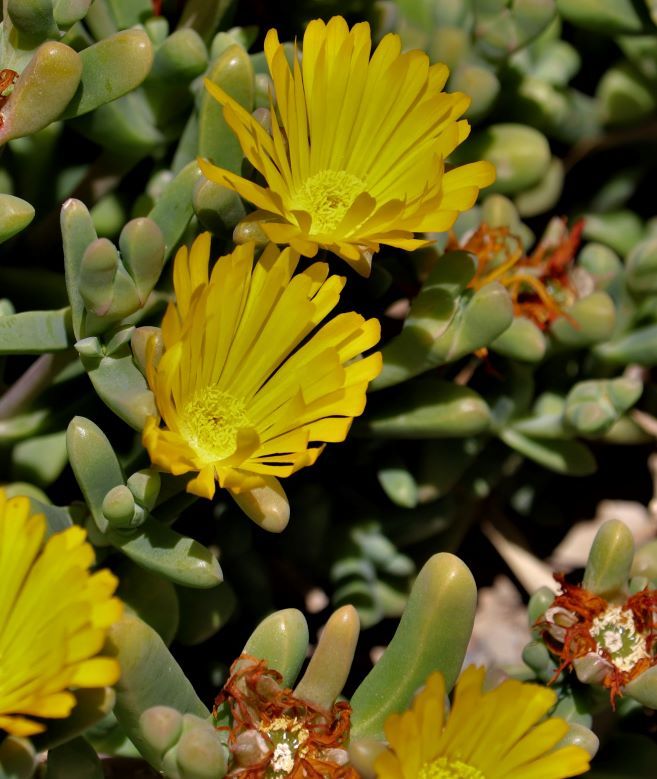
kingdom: Plantae
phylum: Tracheophyta
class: Magnoliopsida
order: Caryophyllales
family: Aizoaceae
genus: Malephora
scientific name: Malephora lutea
